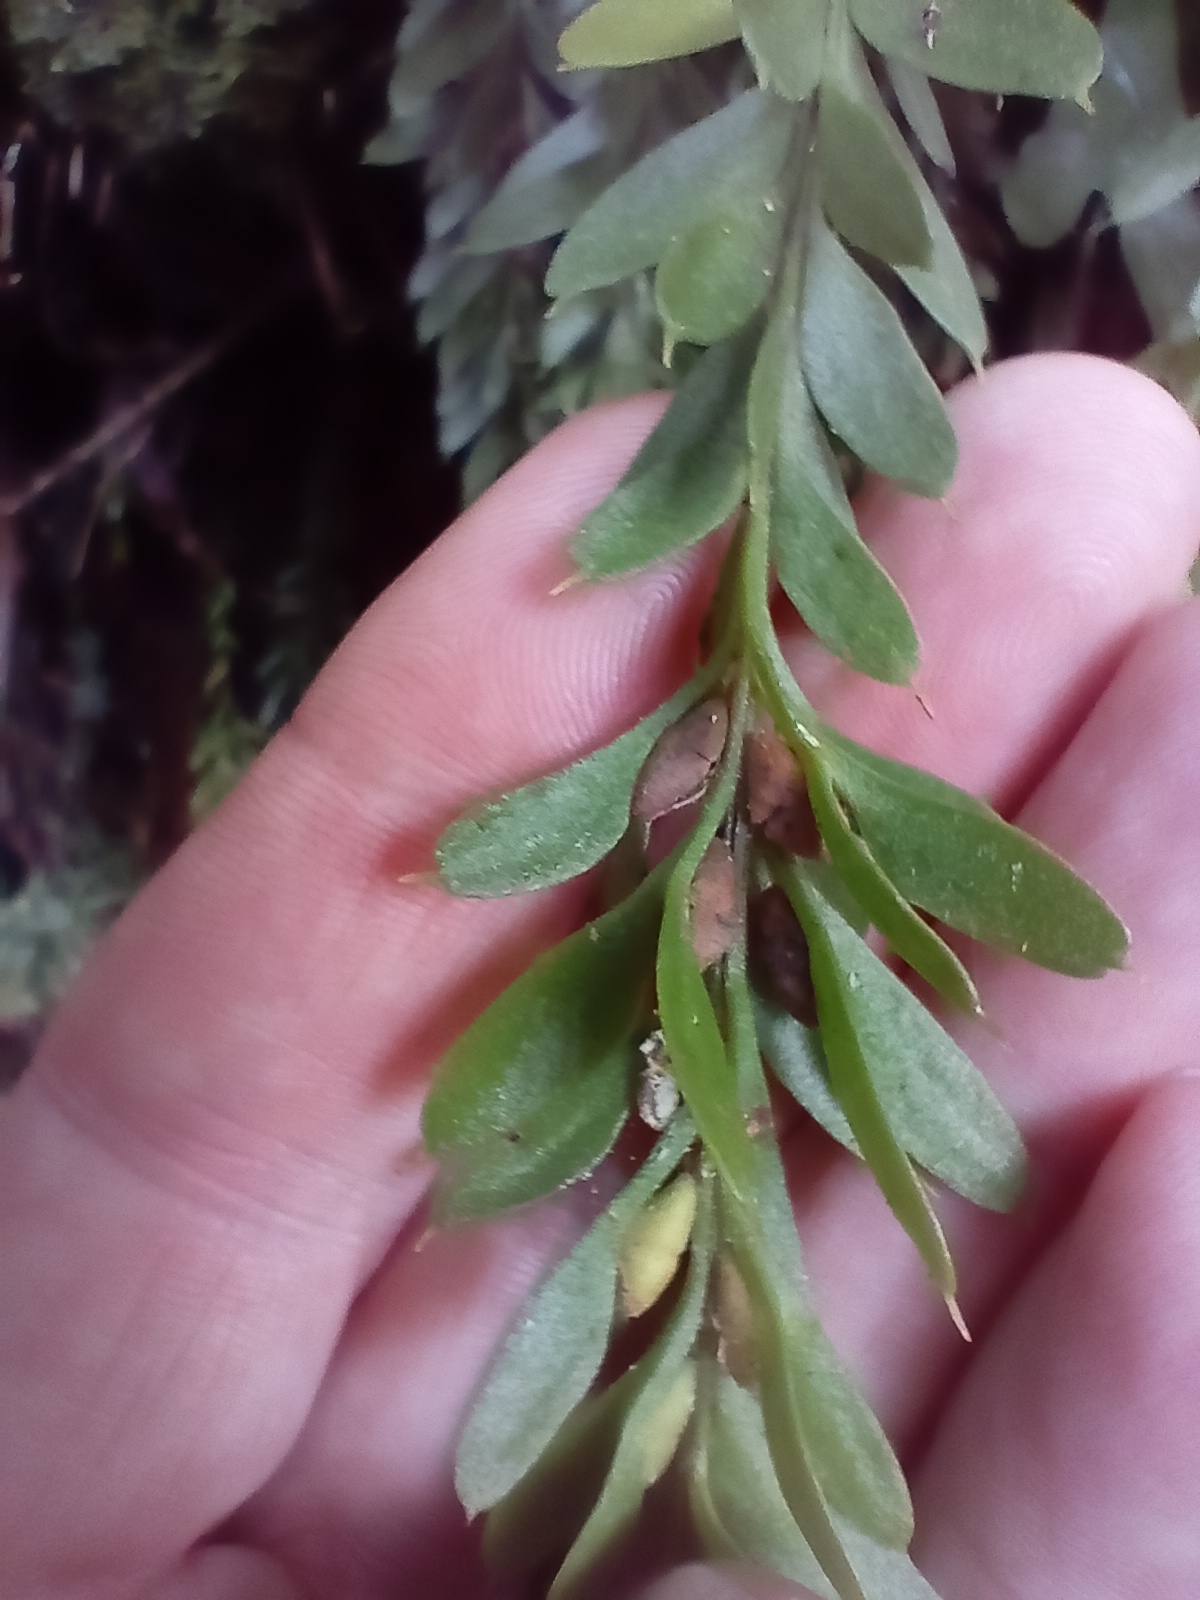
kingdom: Plantae
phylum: Tracheophyta
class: Polypodiopsida
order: Psilotales
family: Psilotaceae
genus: Tmesipteris
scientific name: Tmesipteris tannensis
